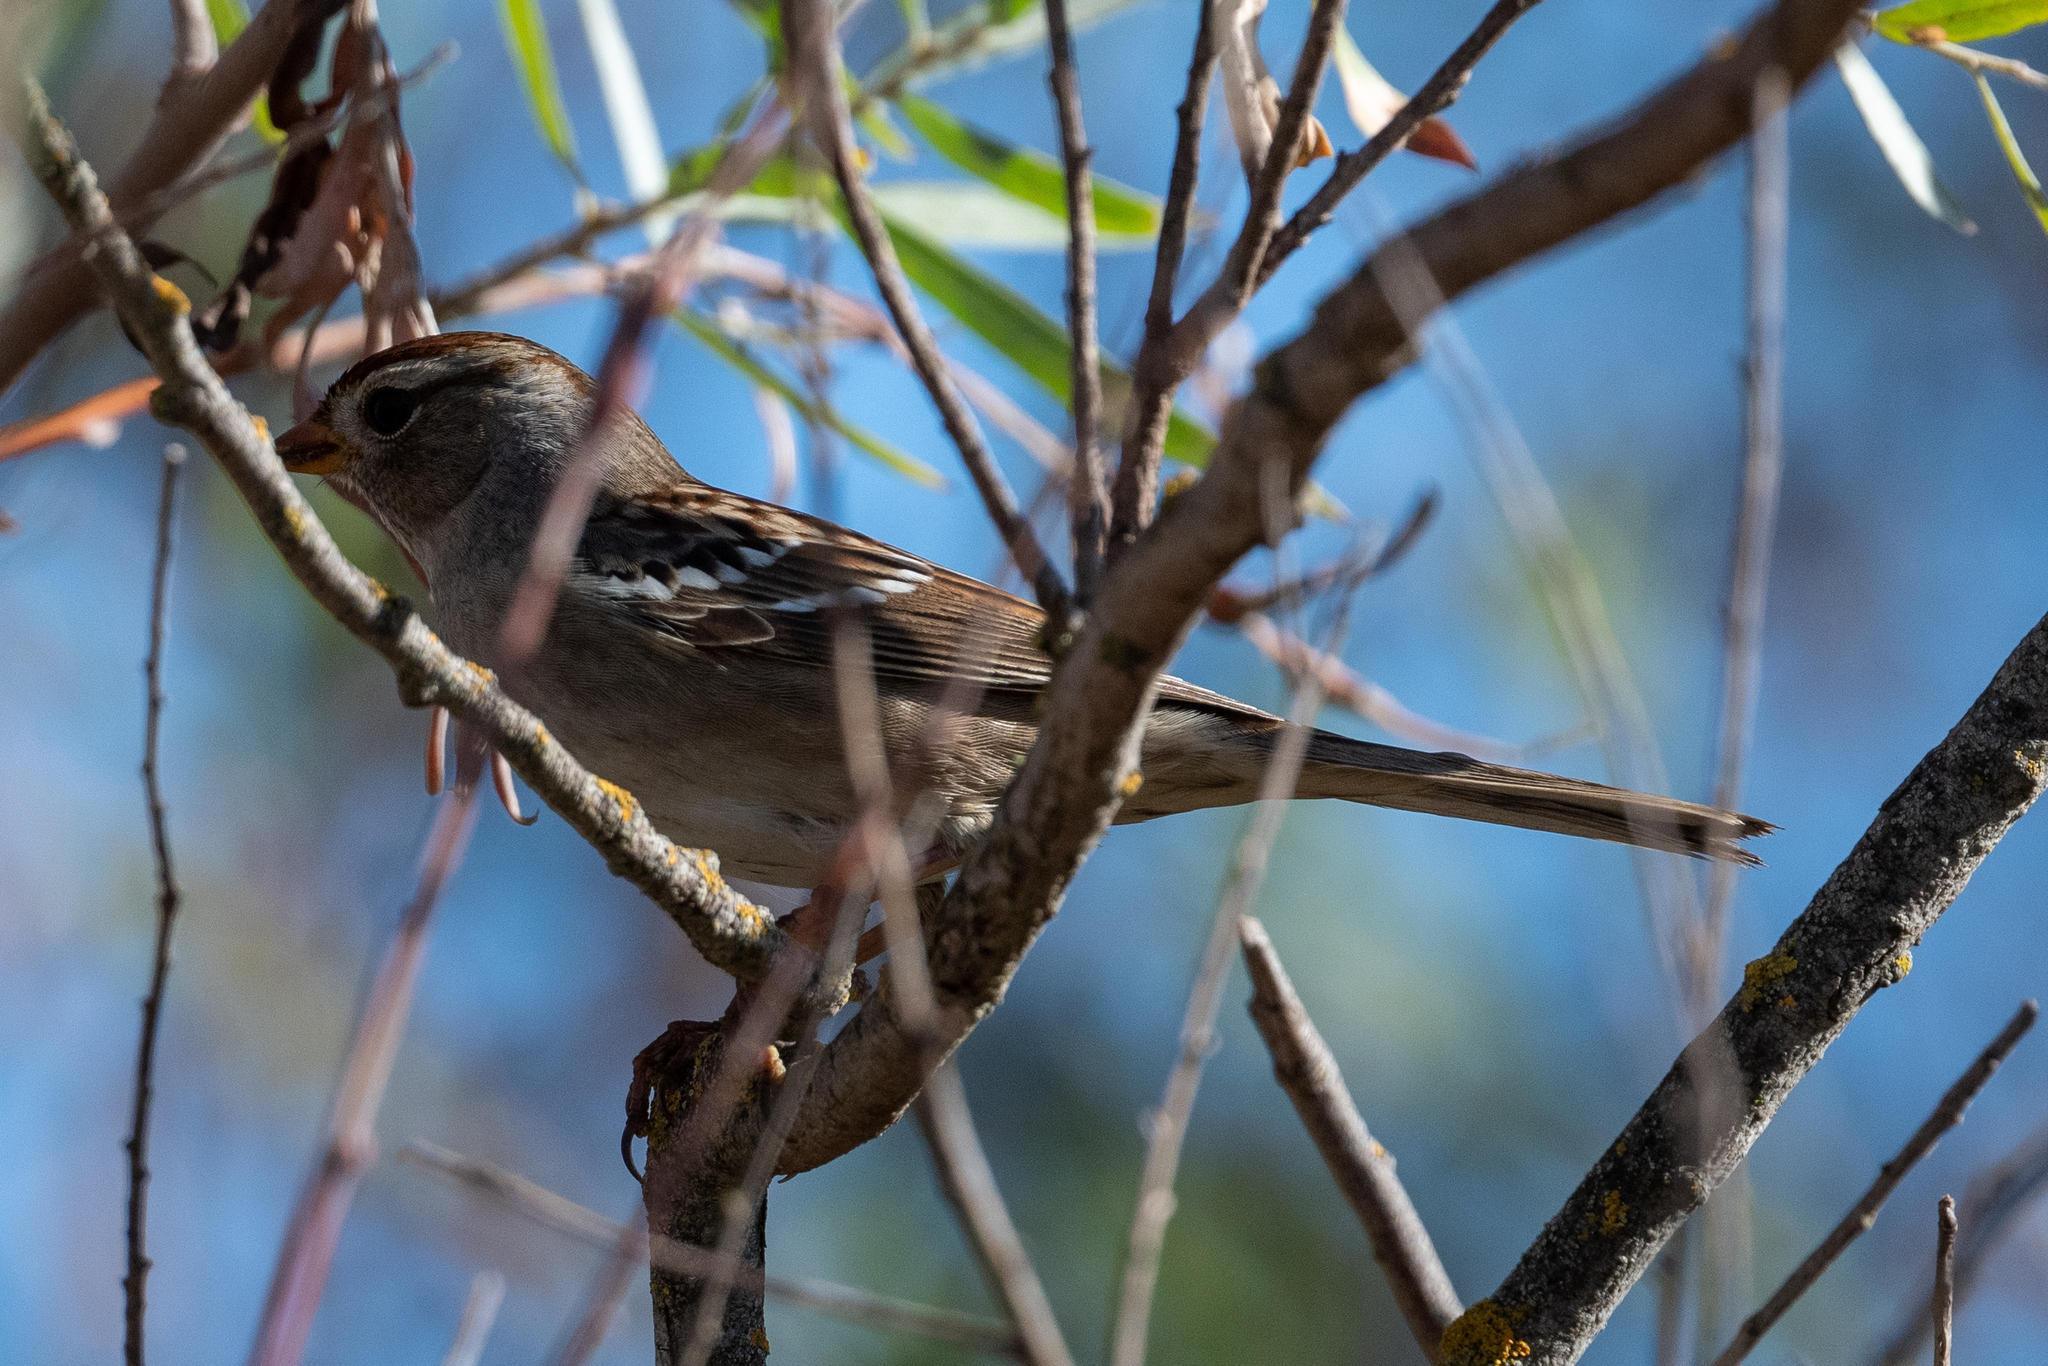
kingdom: Animalia
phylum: Chordata
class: Aves
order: Passeriformes
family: Passerellidae
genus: Zonotrichia
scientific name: Zonotrichia leucophrys
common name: White-crowned sparrow
